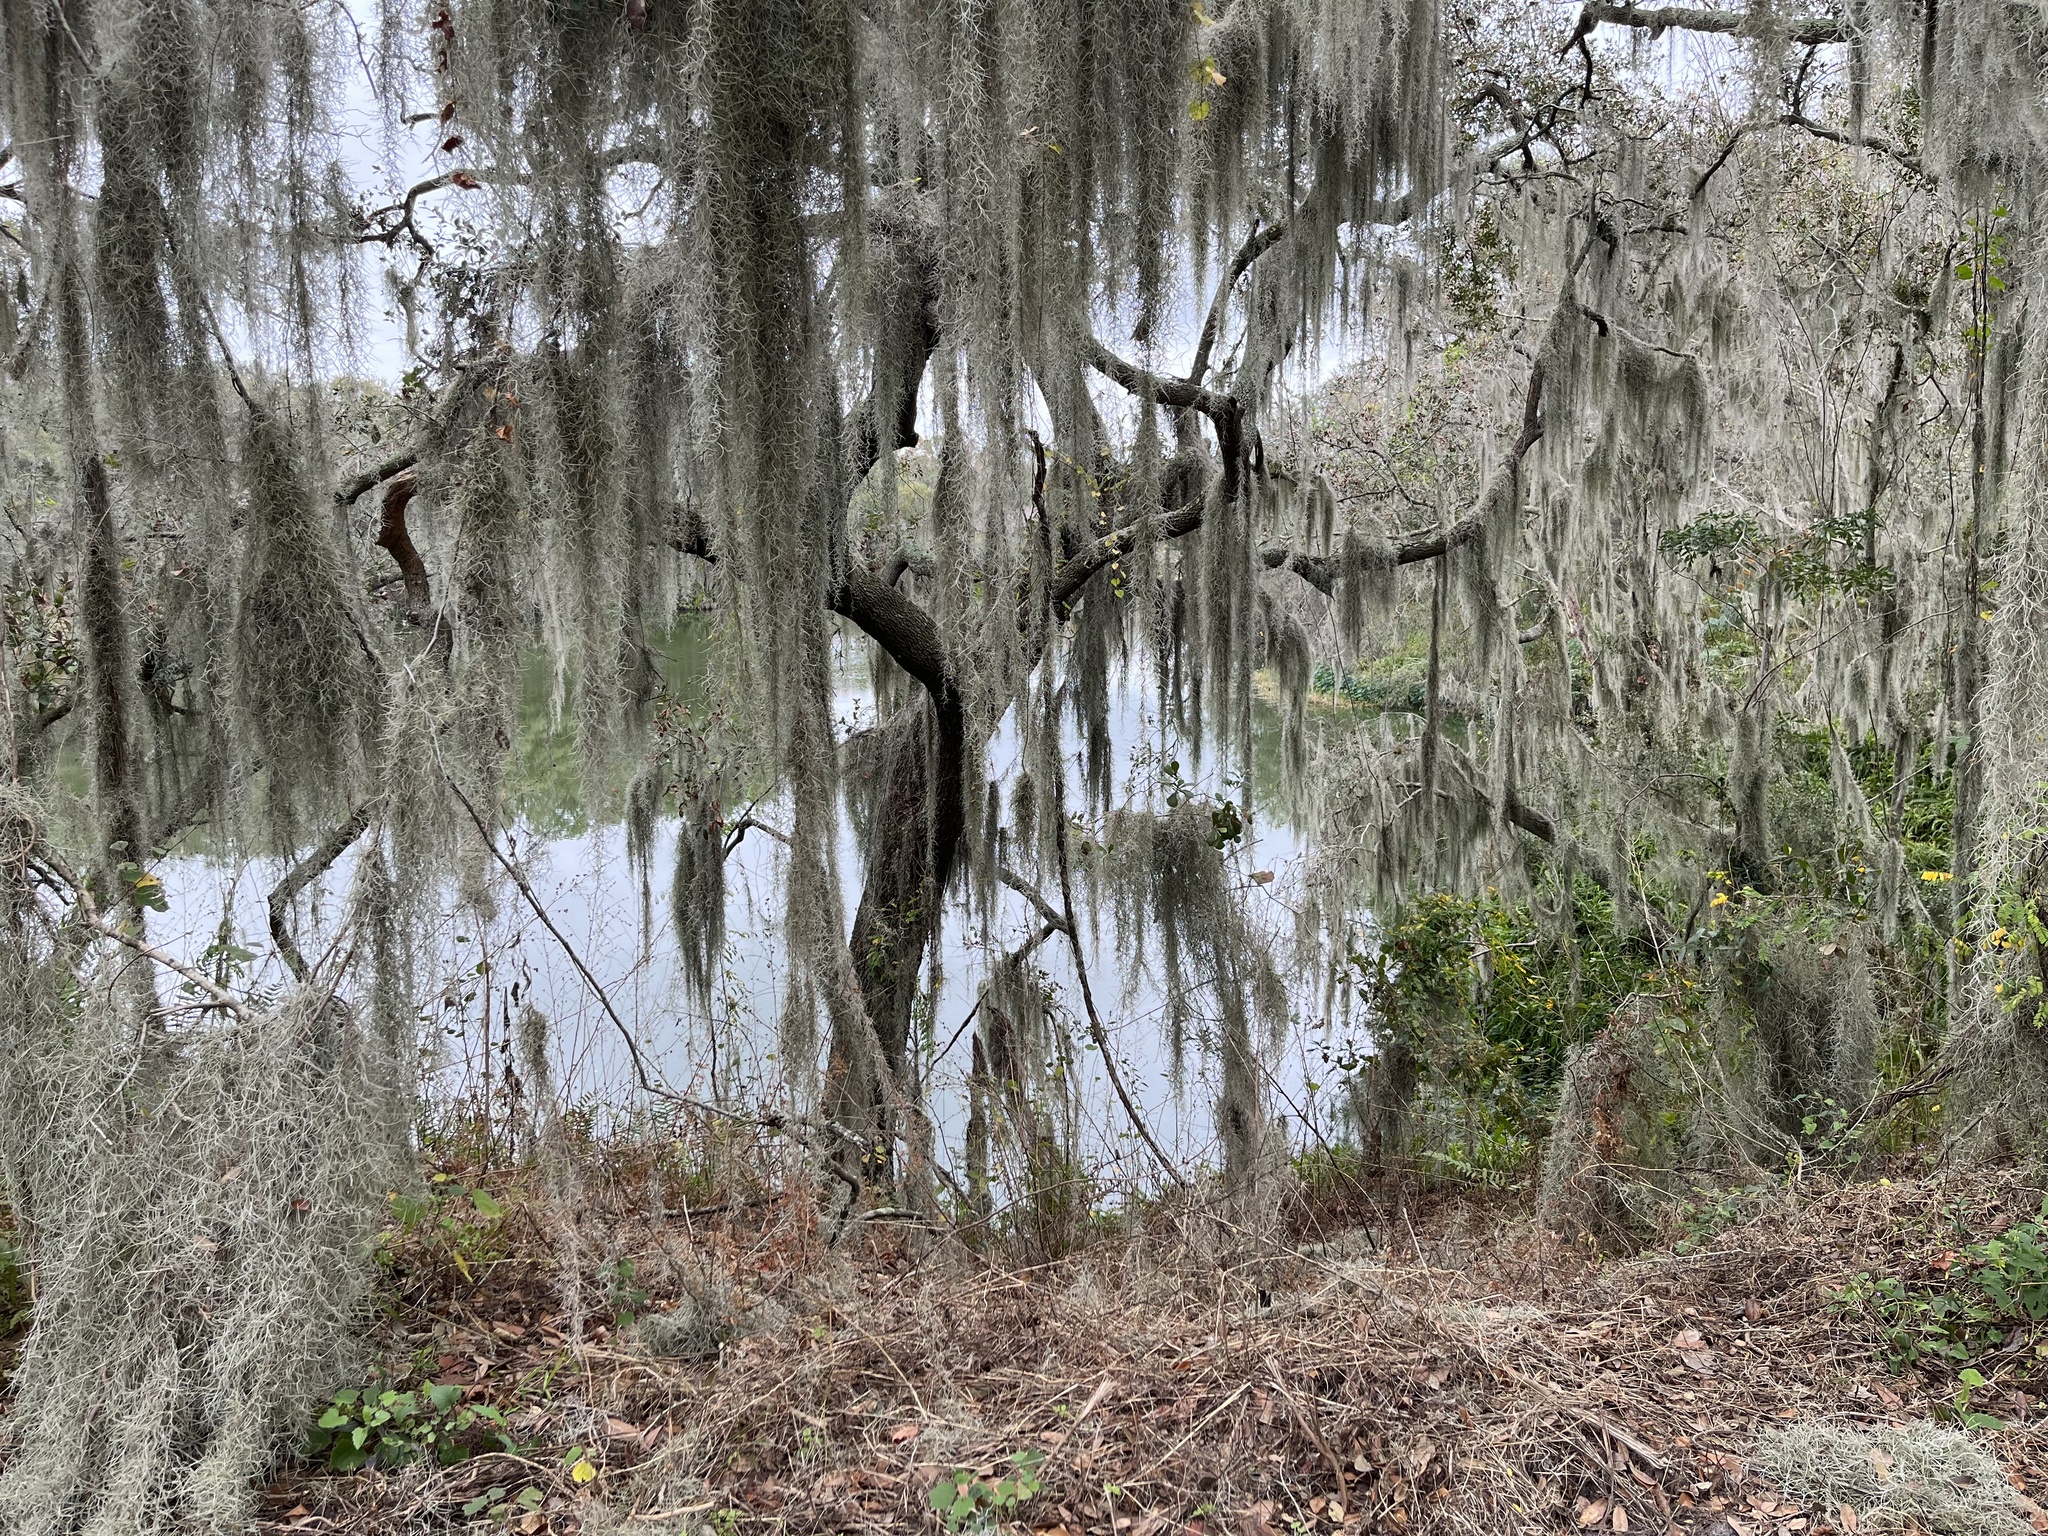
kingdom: Plantae
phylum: Tracheophyta
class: Liliopsida
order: Poales
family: Bromeliaceae
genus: Tillandsia
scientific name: Tillandsia usneoides
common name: Spanish moss
